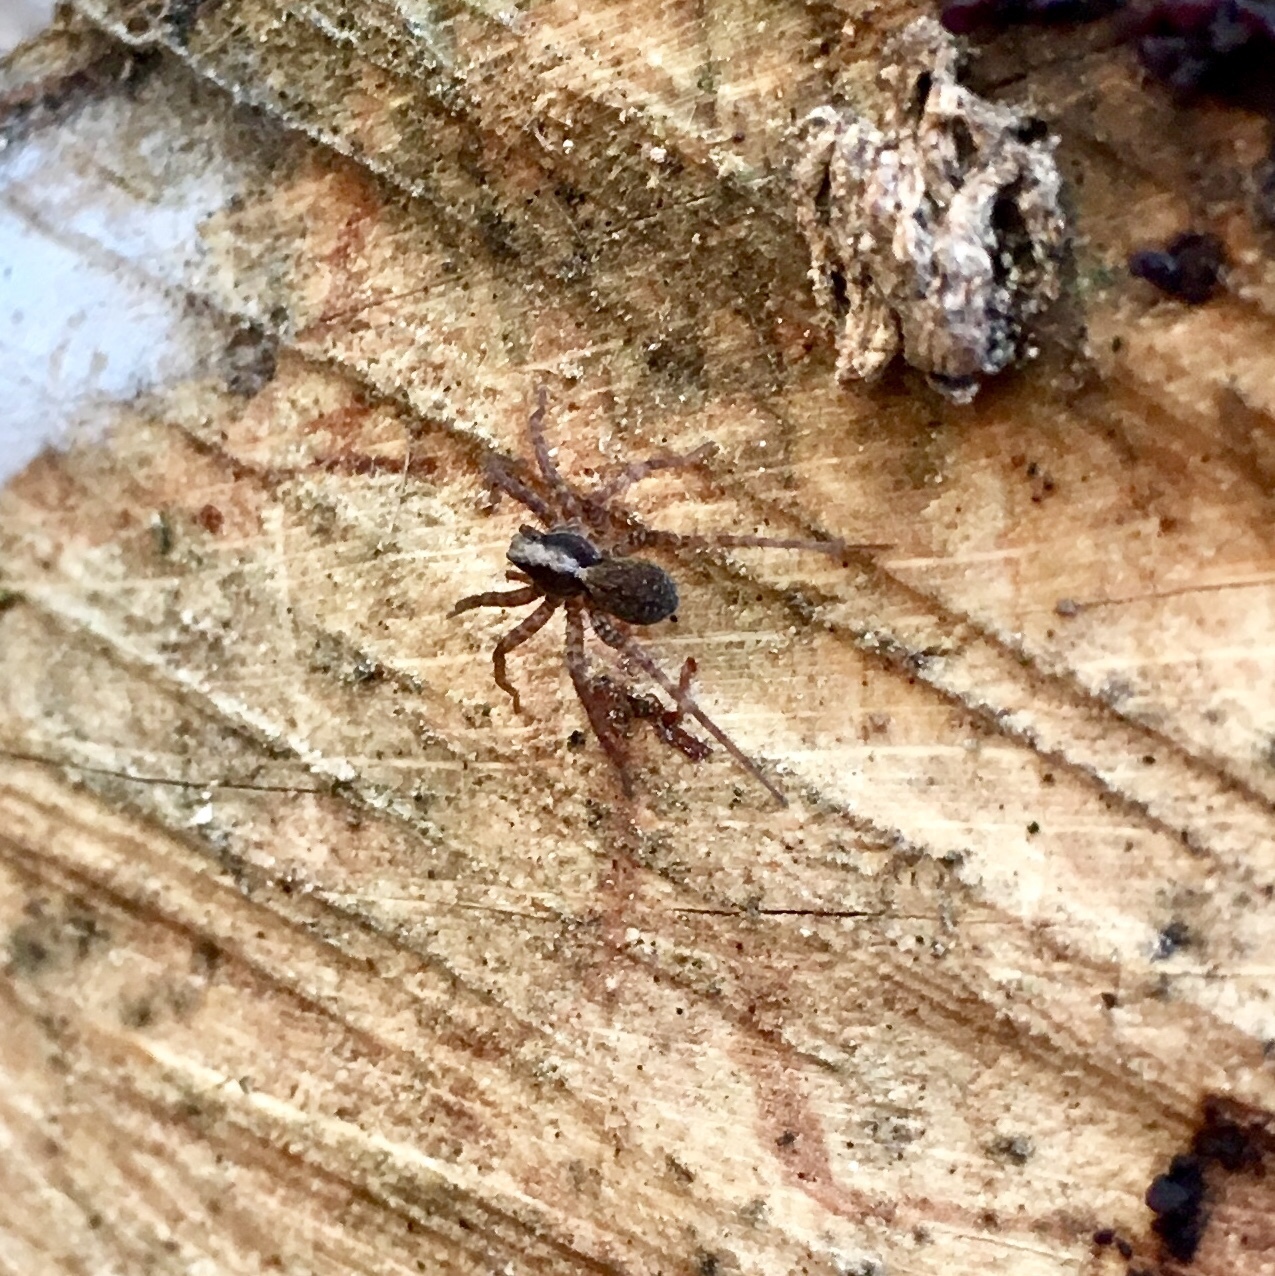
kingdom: Animalia
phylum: Arthropoda
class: Arachnida
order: Araneae
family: Lycosidae
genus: Pardosa
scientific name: Pardosa
